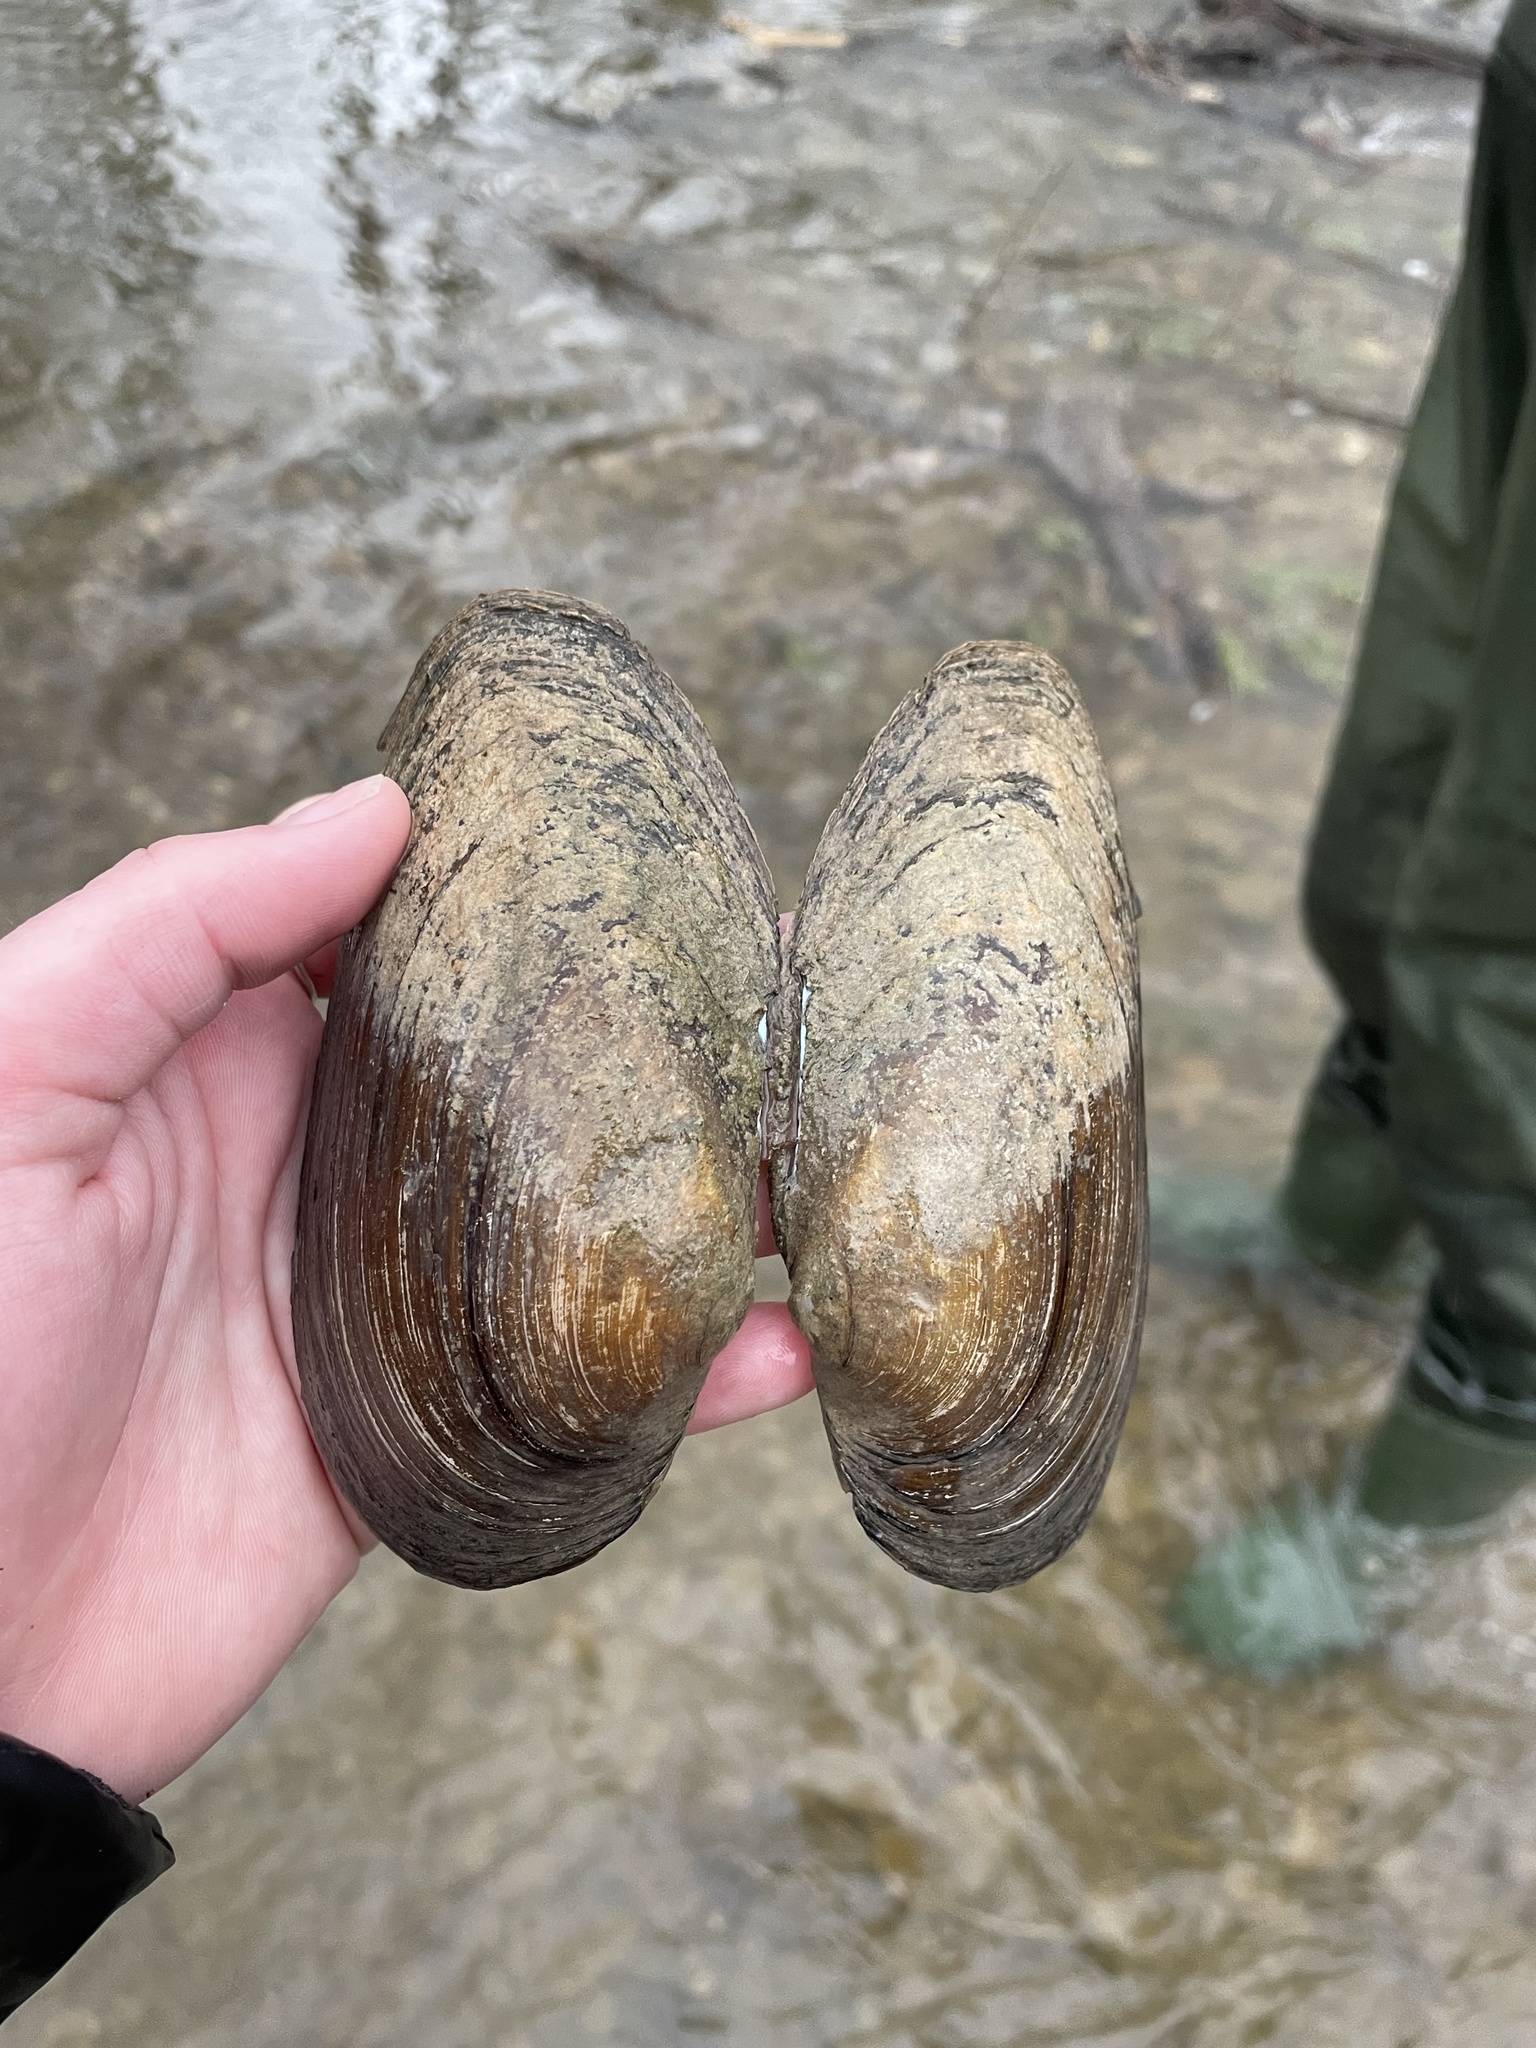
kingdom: Animalia
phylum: Mollusca
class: Bivalvia
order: Unionida
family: Unionidae
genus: Pyganodon
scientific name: Pyganodon grandis
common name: Giant floater
